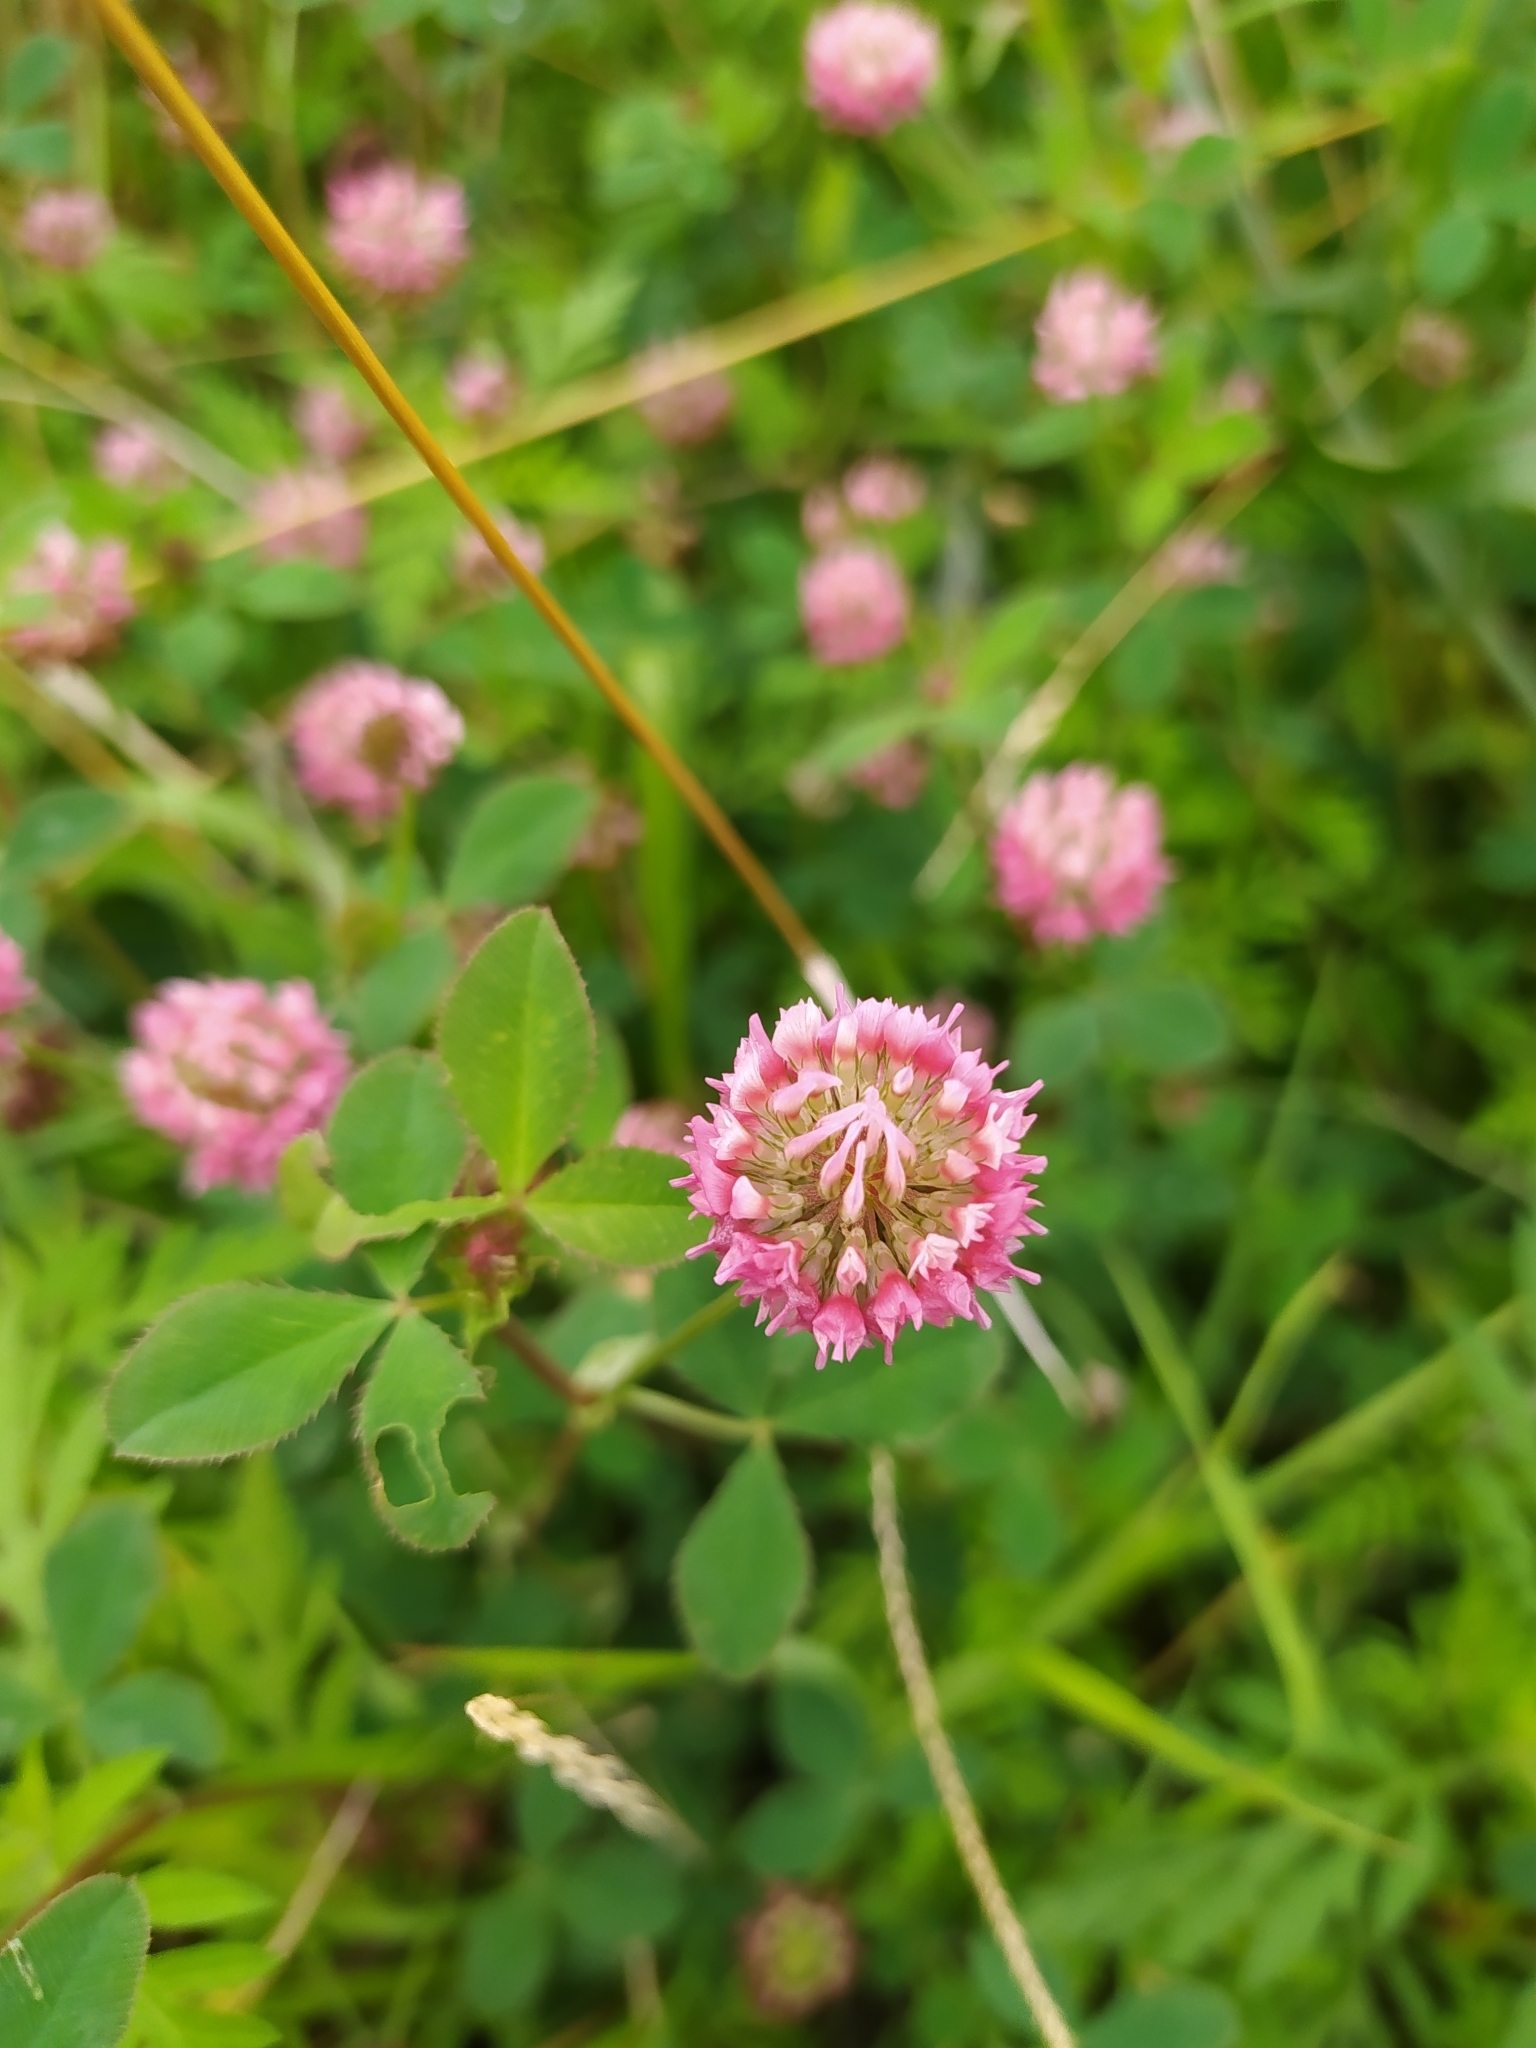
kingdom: Plantae
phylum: Tracheophyta
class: Magnoliopsida
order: Fabales
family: Fabaceae
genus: Trifolium
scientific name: Trifolium hybridum
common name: Alsike clover
